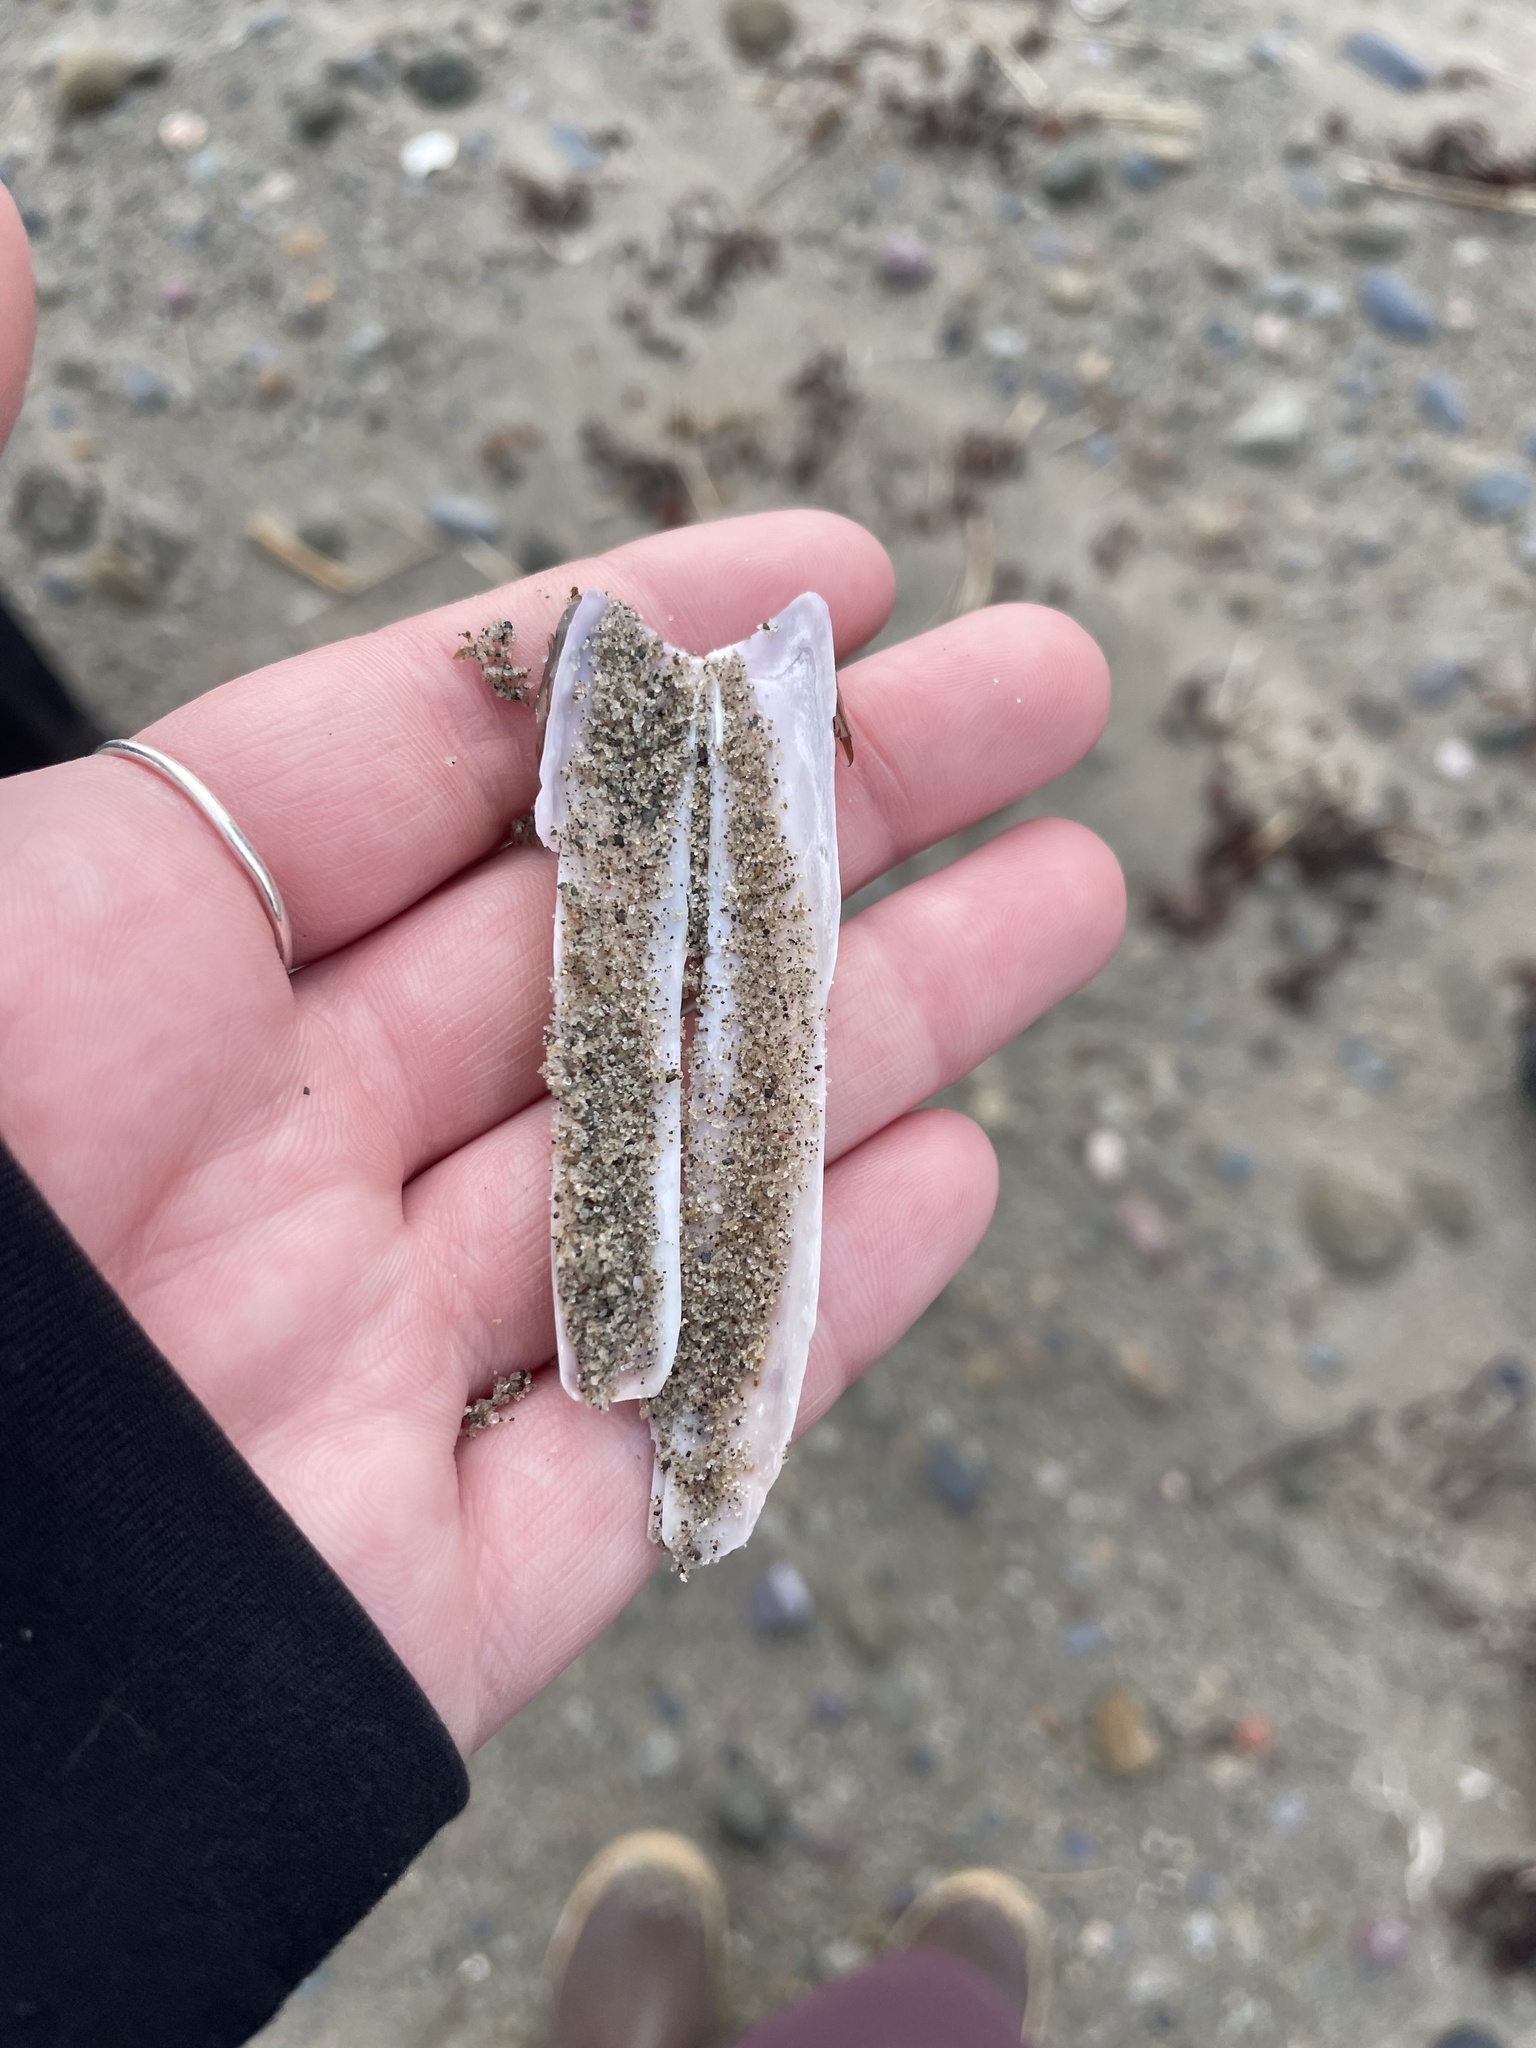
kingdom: Animalia
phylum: Mollusca
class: Bivalvia
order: Adapedonta
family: Pharidae
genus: Ensis
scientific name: Ensis leei
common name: American jack knife clam
